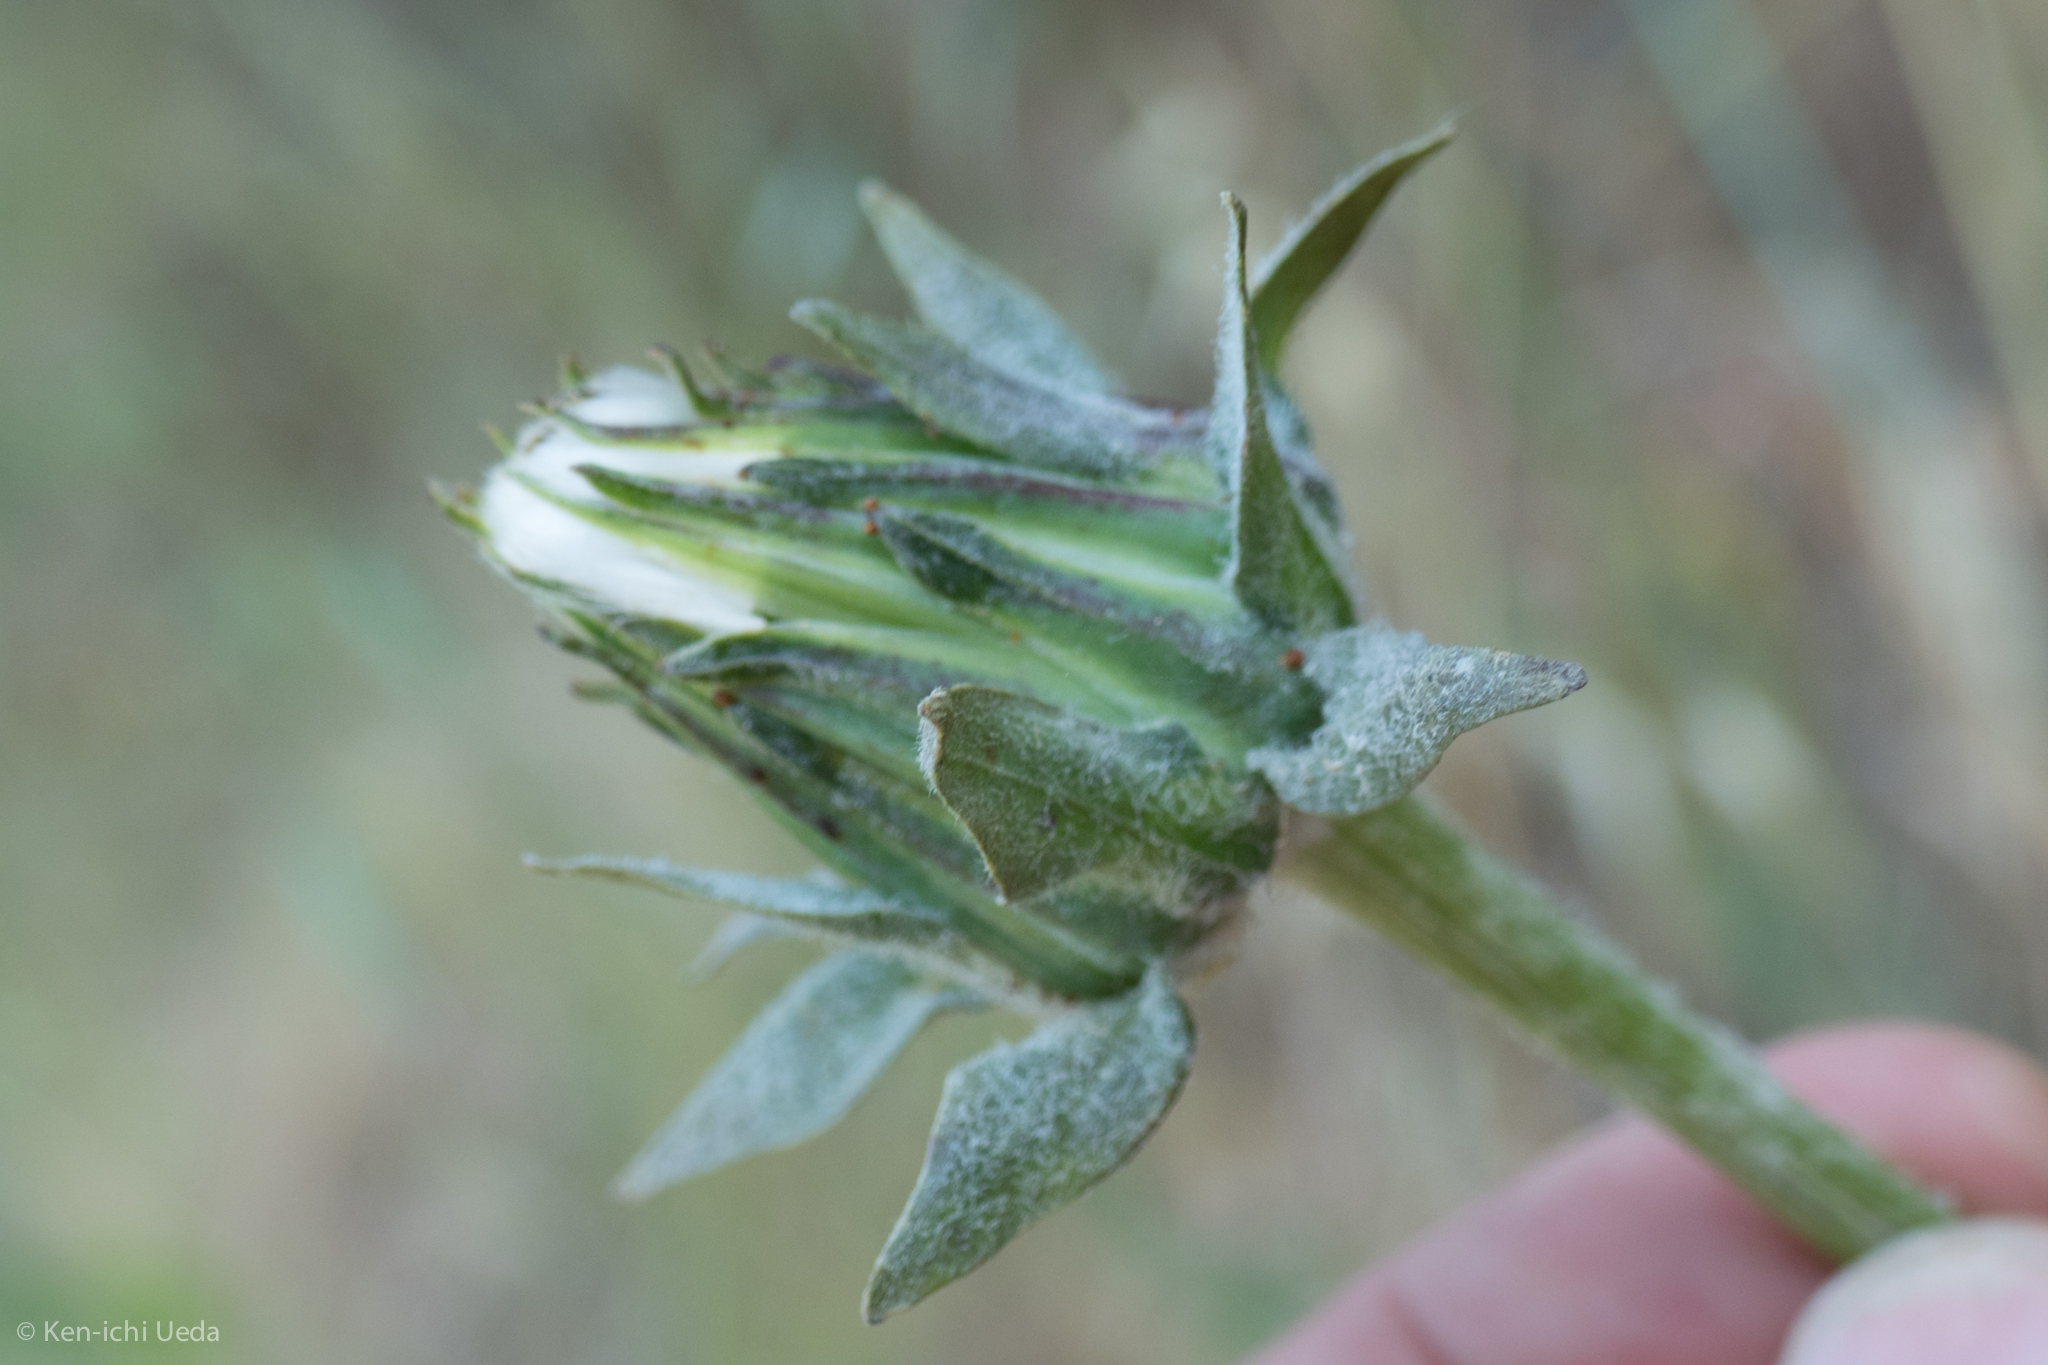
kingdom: Plantae
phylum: Tracheophyta
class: Magnoliopsida
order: Asterales
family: Asteraceae
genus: Agoseris
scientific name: Agoseris grandiflora
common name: Grassland agoseris
